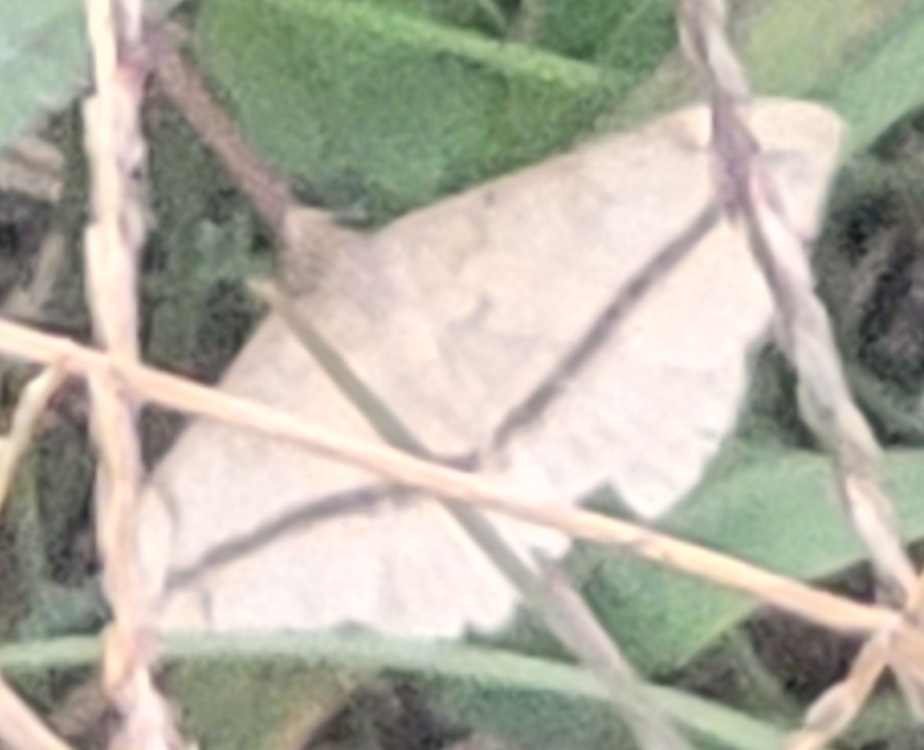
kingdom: Animalia
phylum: Arthropoda
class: Insecta
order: Lepidoptera
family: Erebidae
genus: Anticarsia
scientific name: Anticarsia gemmatalis
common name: Cutworm moth
